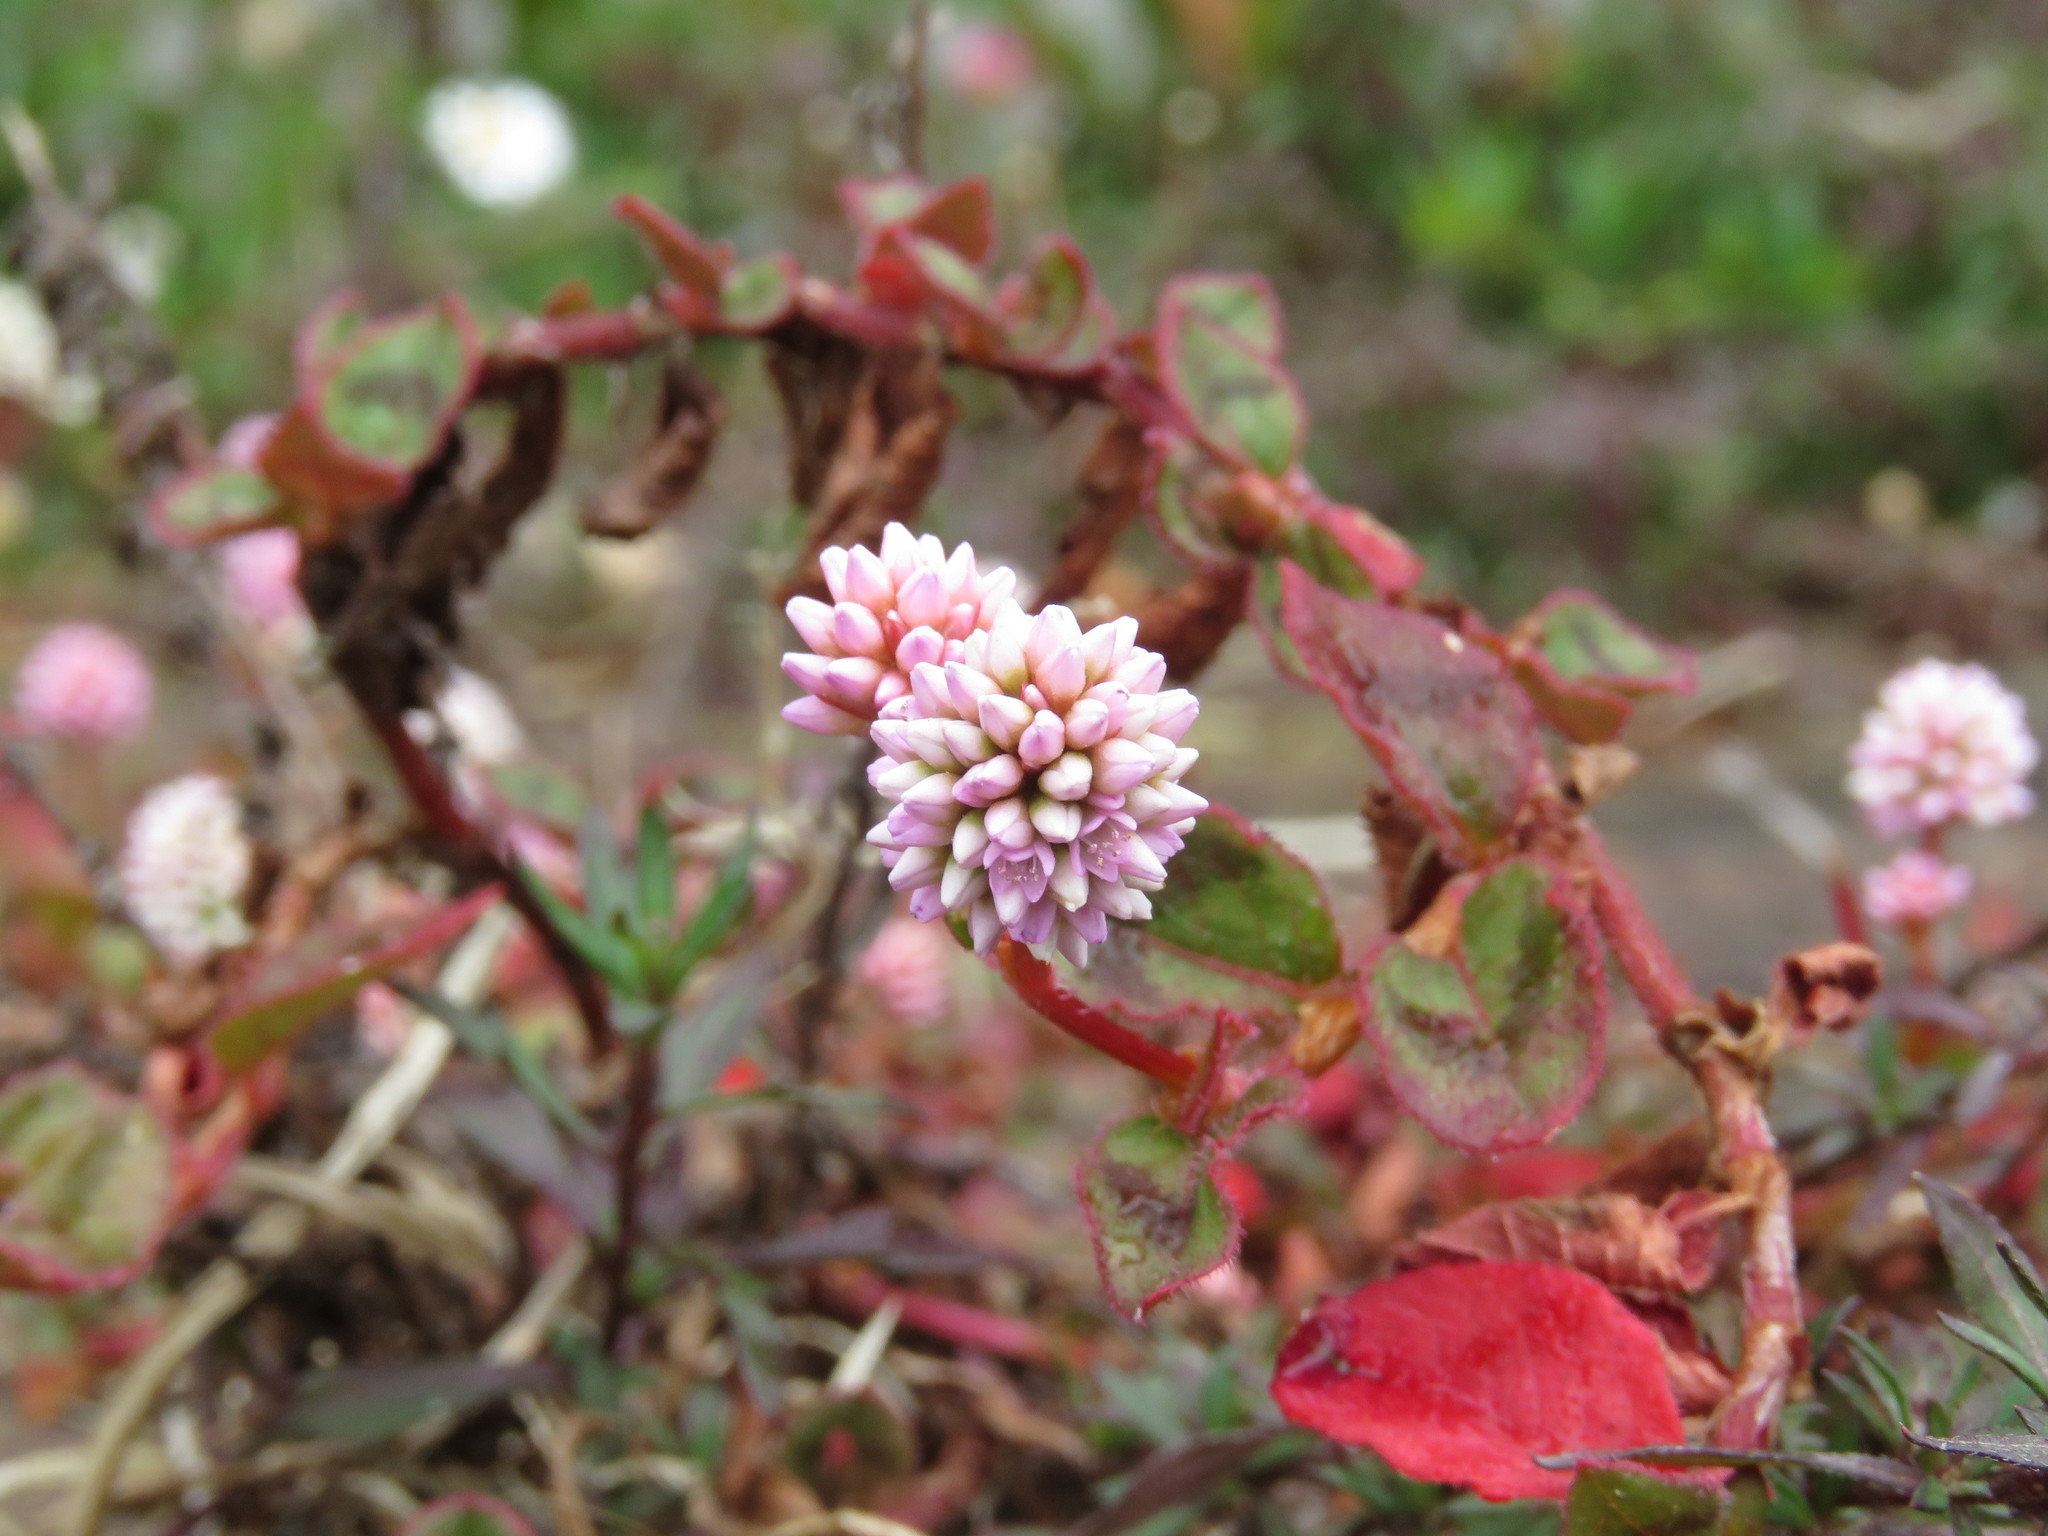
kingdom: Plantae
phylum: Tracheophyta
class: Magnoliopsida
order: Caryophyllales
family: Polygonaceae
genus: Persicaria
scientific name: Persicaria capitata
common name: Pinkhead smartweed
